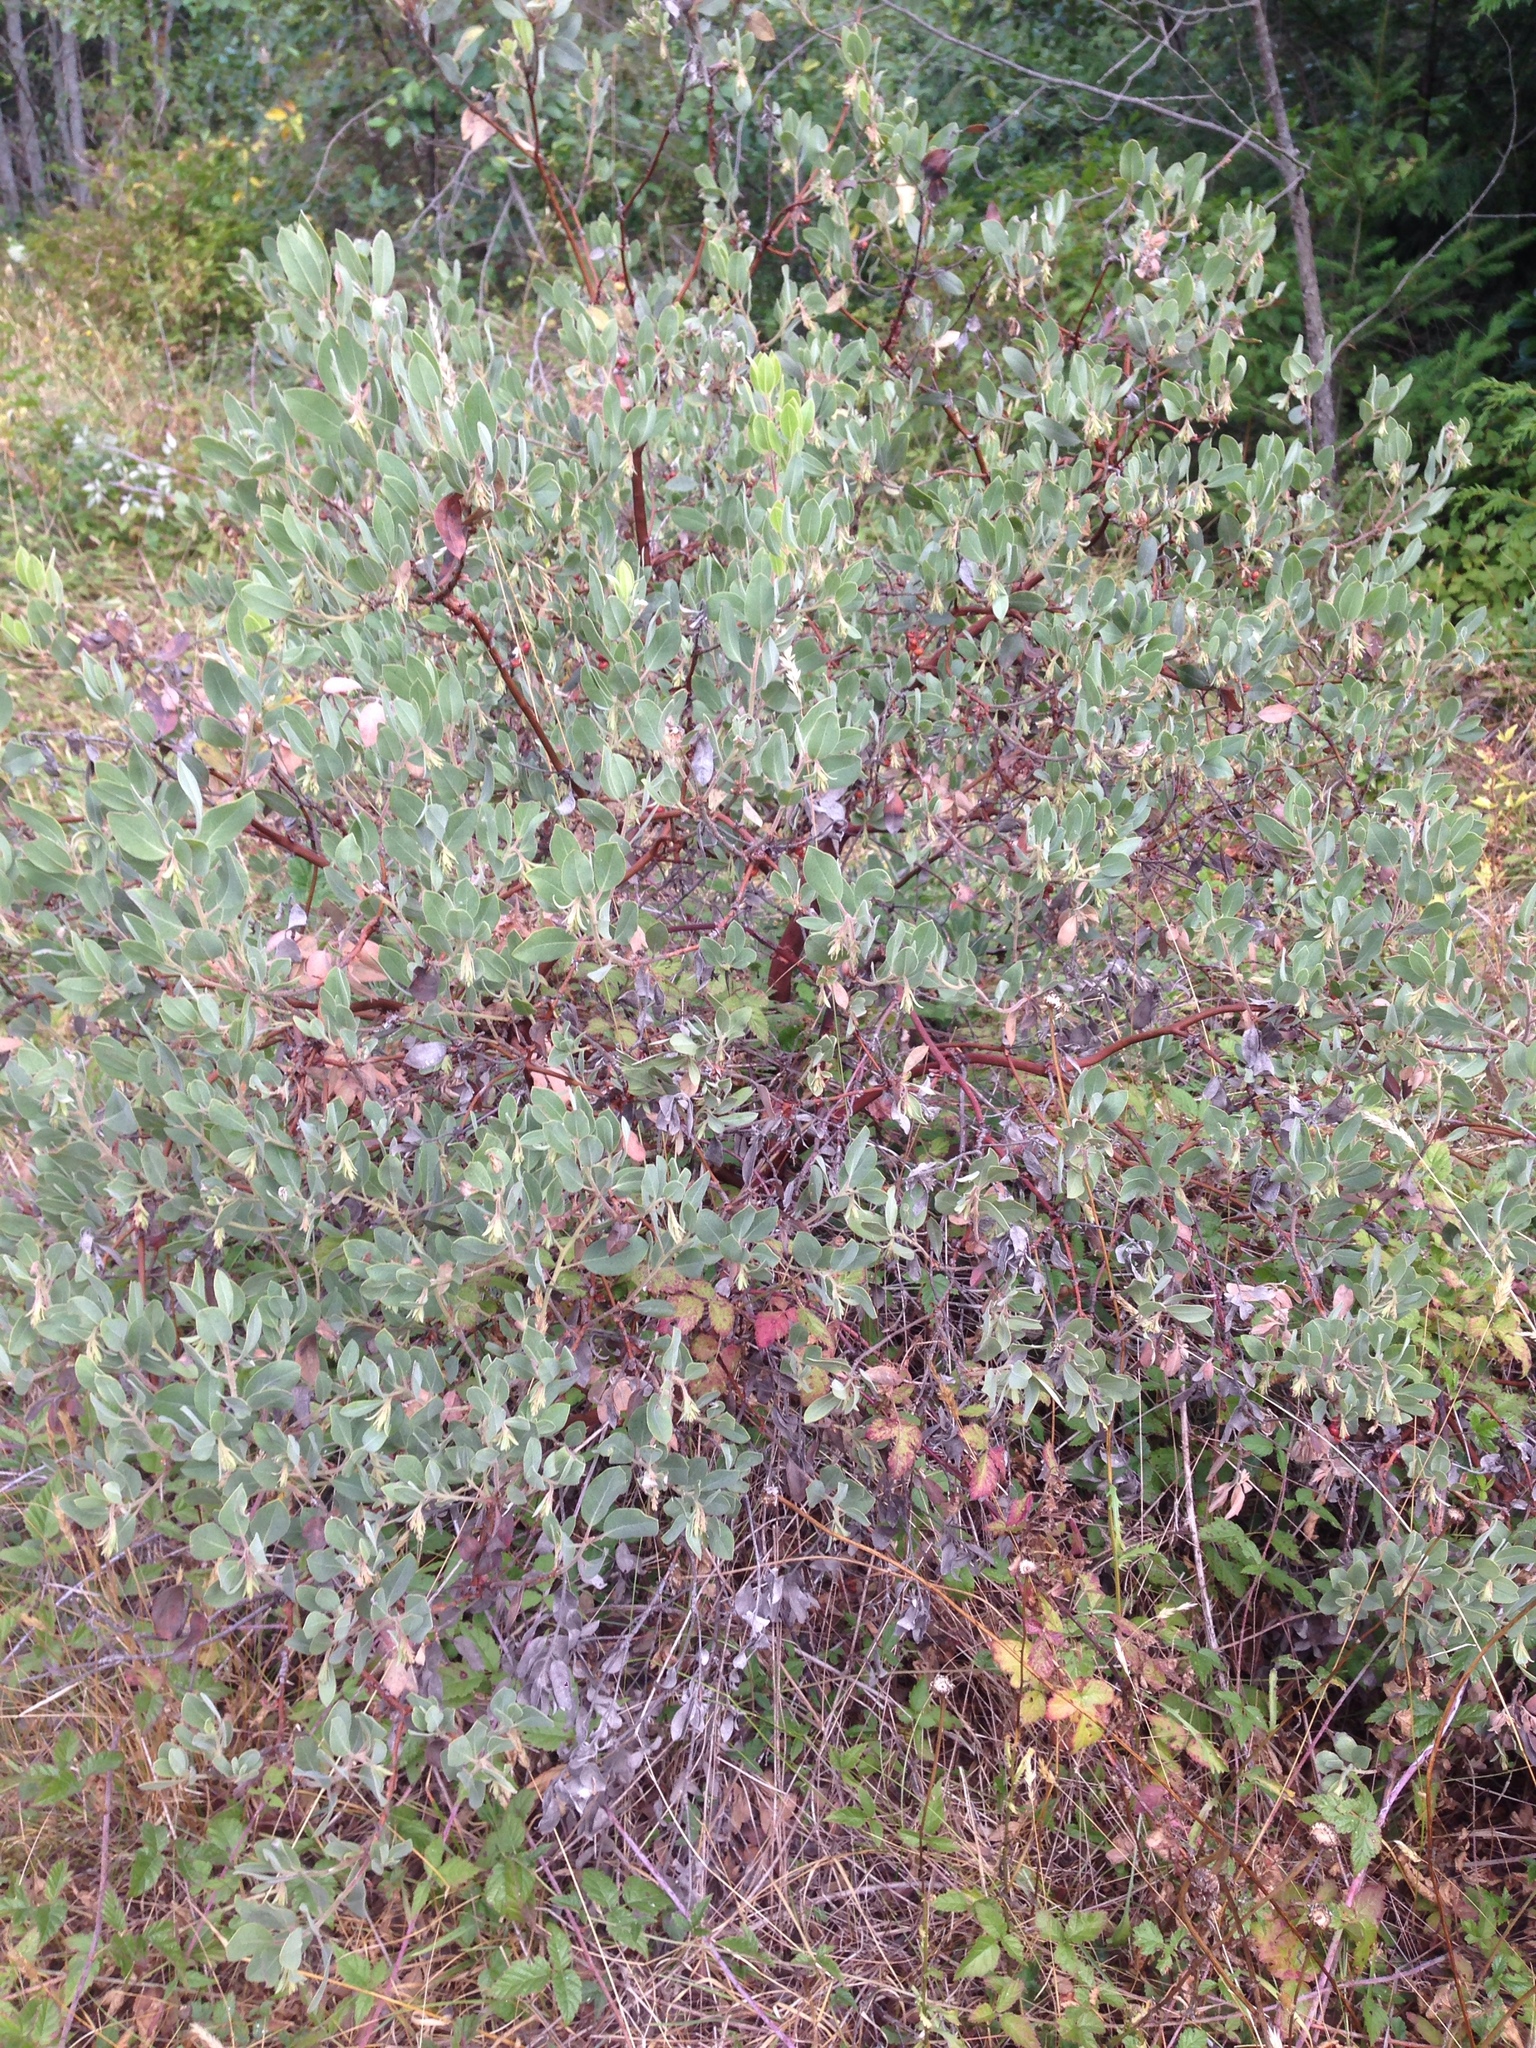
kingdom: Plantae
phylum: Tracheophyta
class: Magnoliopsida
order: Ericales
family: Ericaceae
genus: Arctostaphylos
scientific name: Arctostaphylos columbiana
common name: Bristly bearberry
